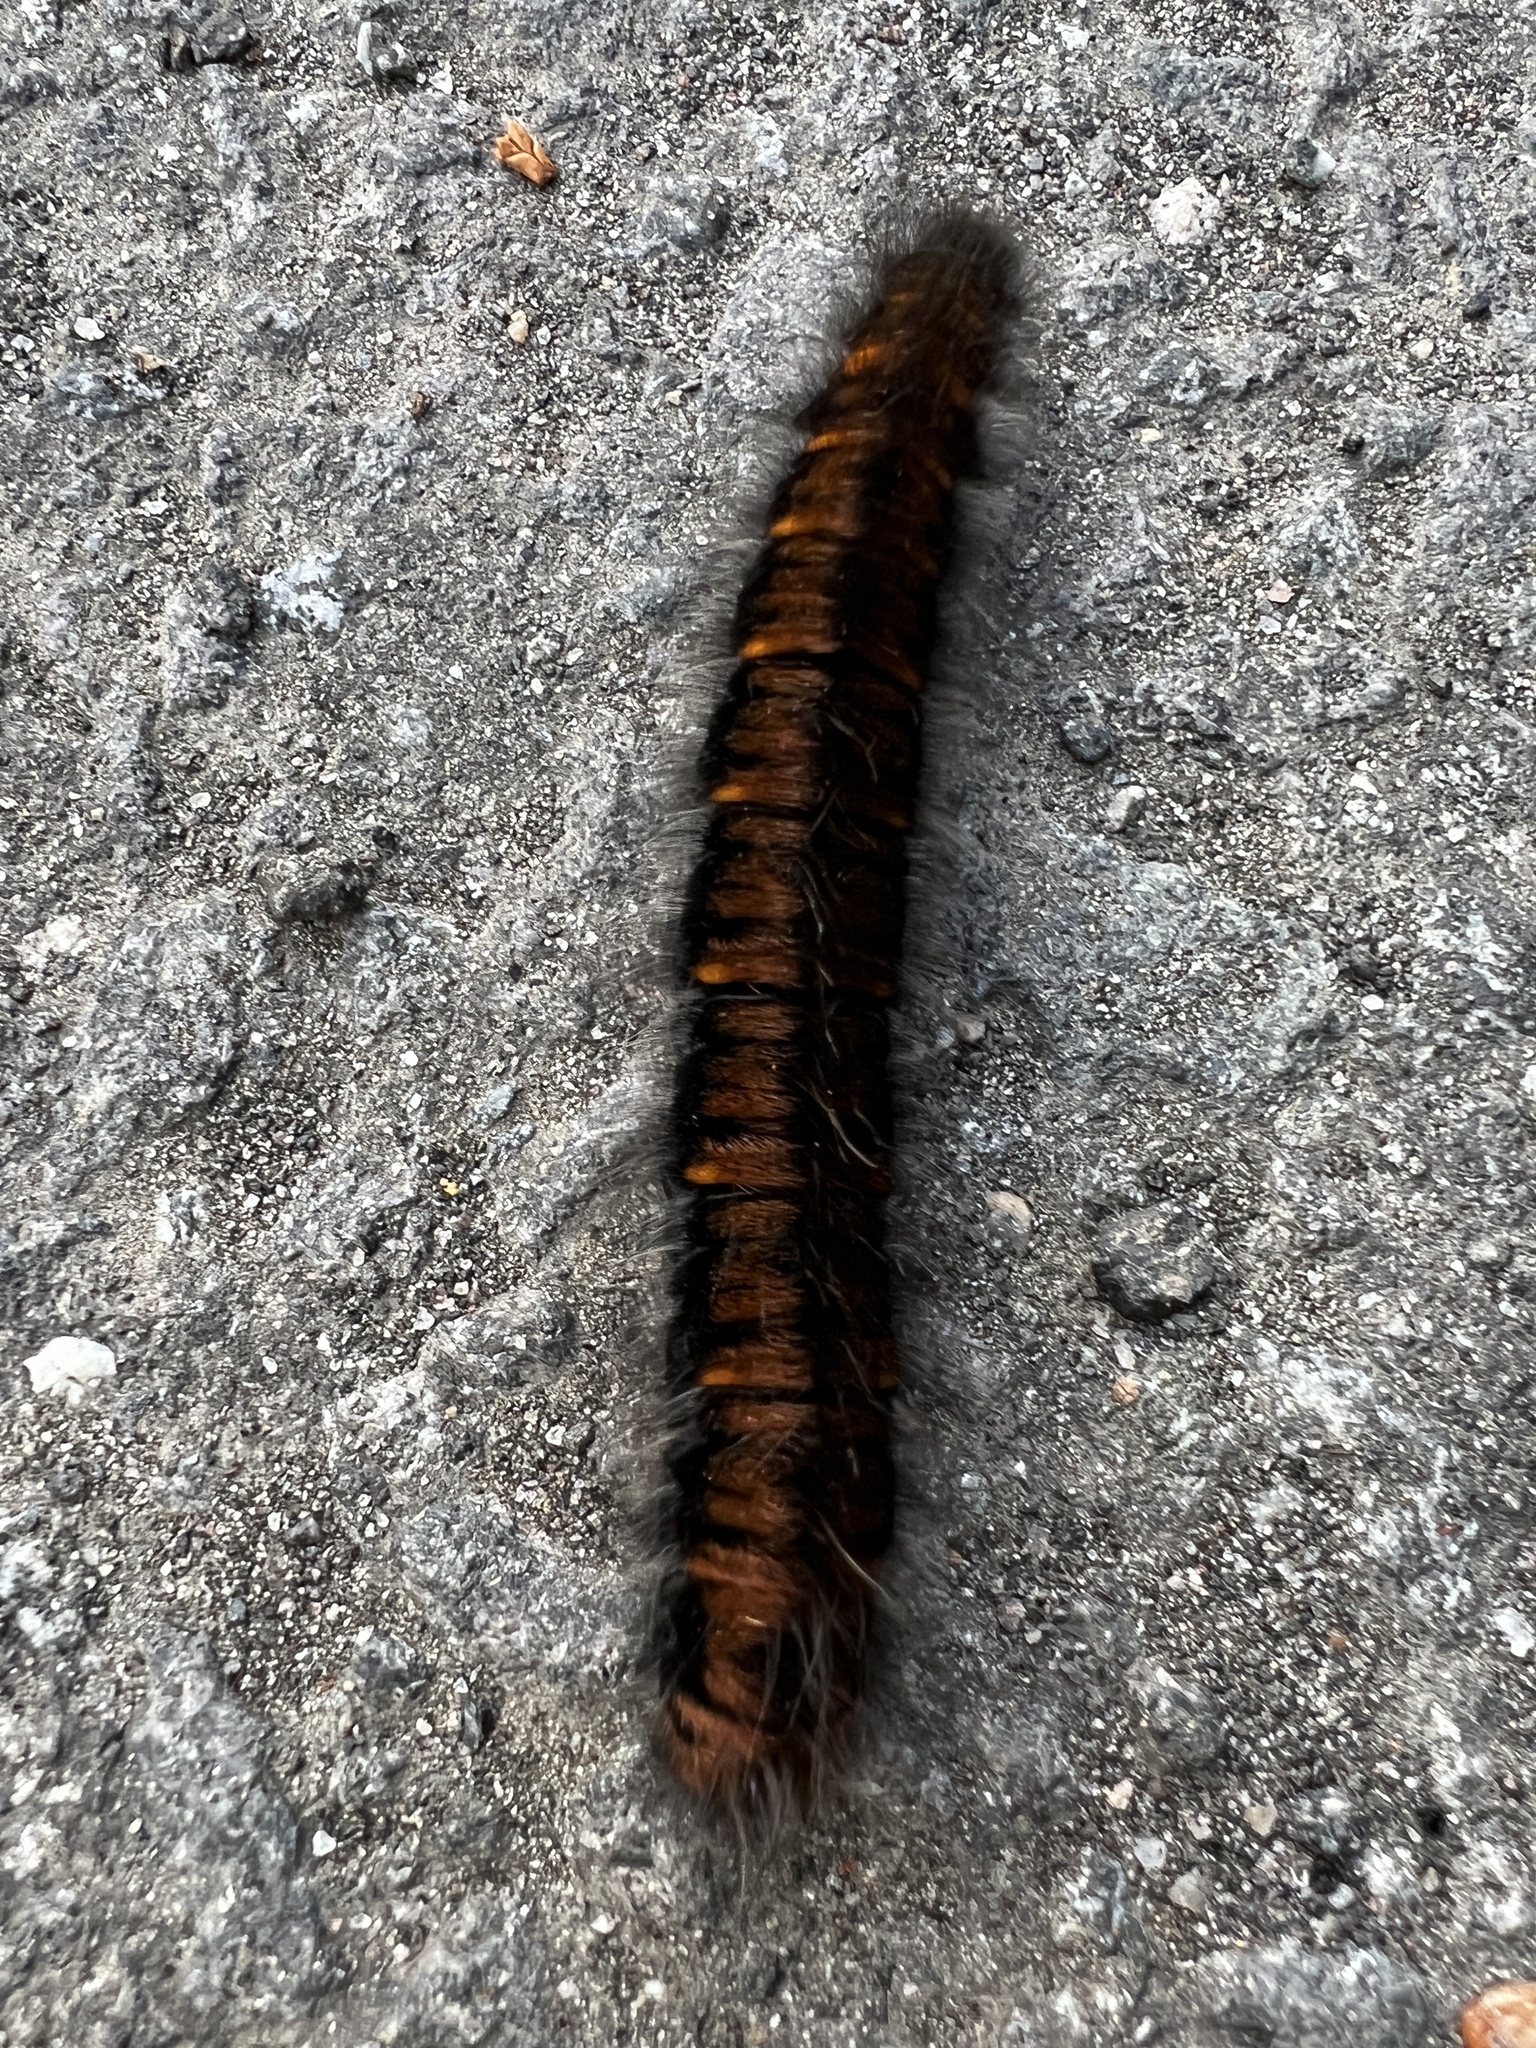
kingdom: Animalia
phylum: Arthropoda
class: Insecta
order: Lepidoptera
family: Lasiocampidae
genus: Macrothylacia
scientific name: Macrothylacia rubi
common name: Fox moth
